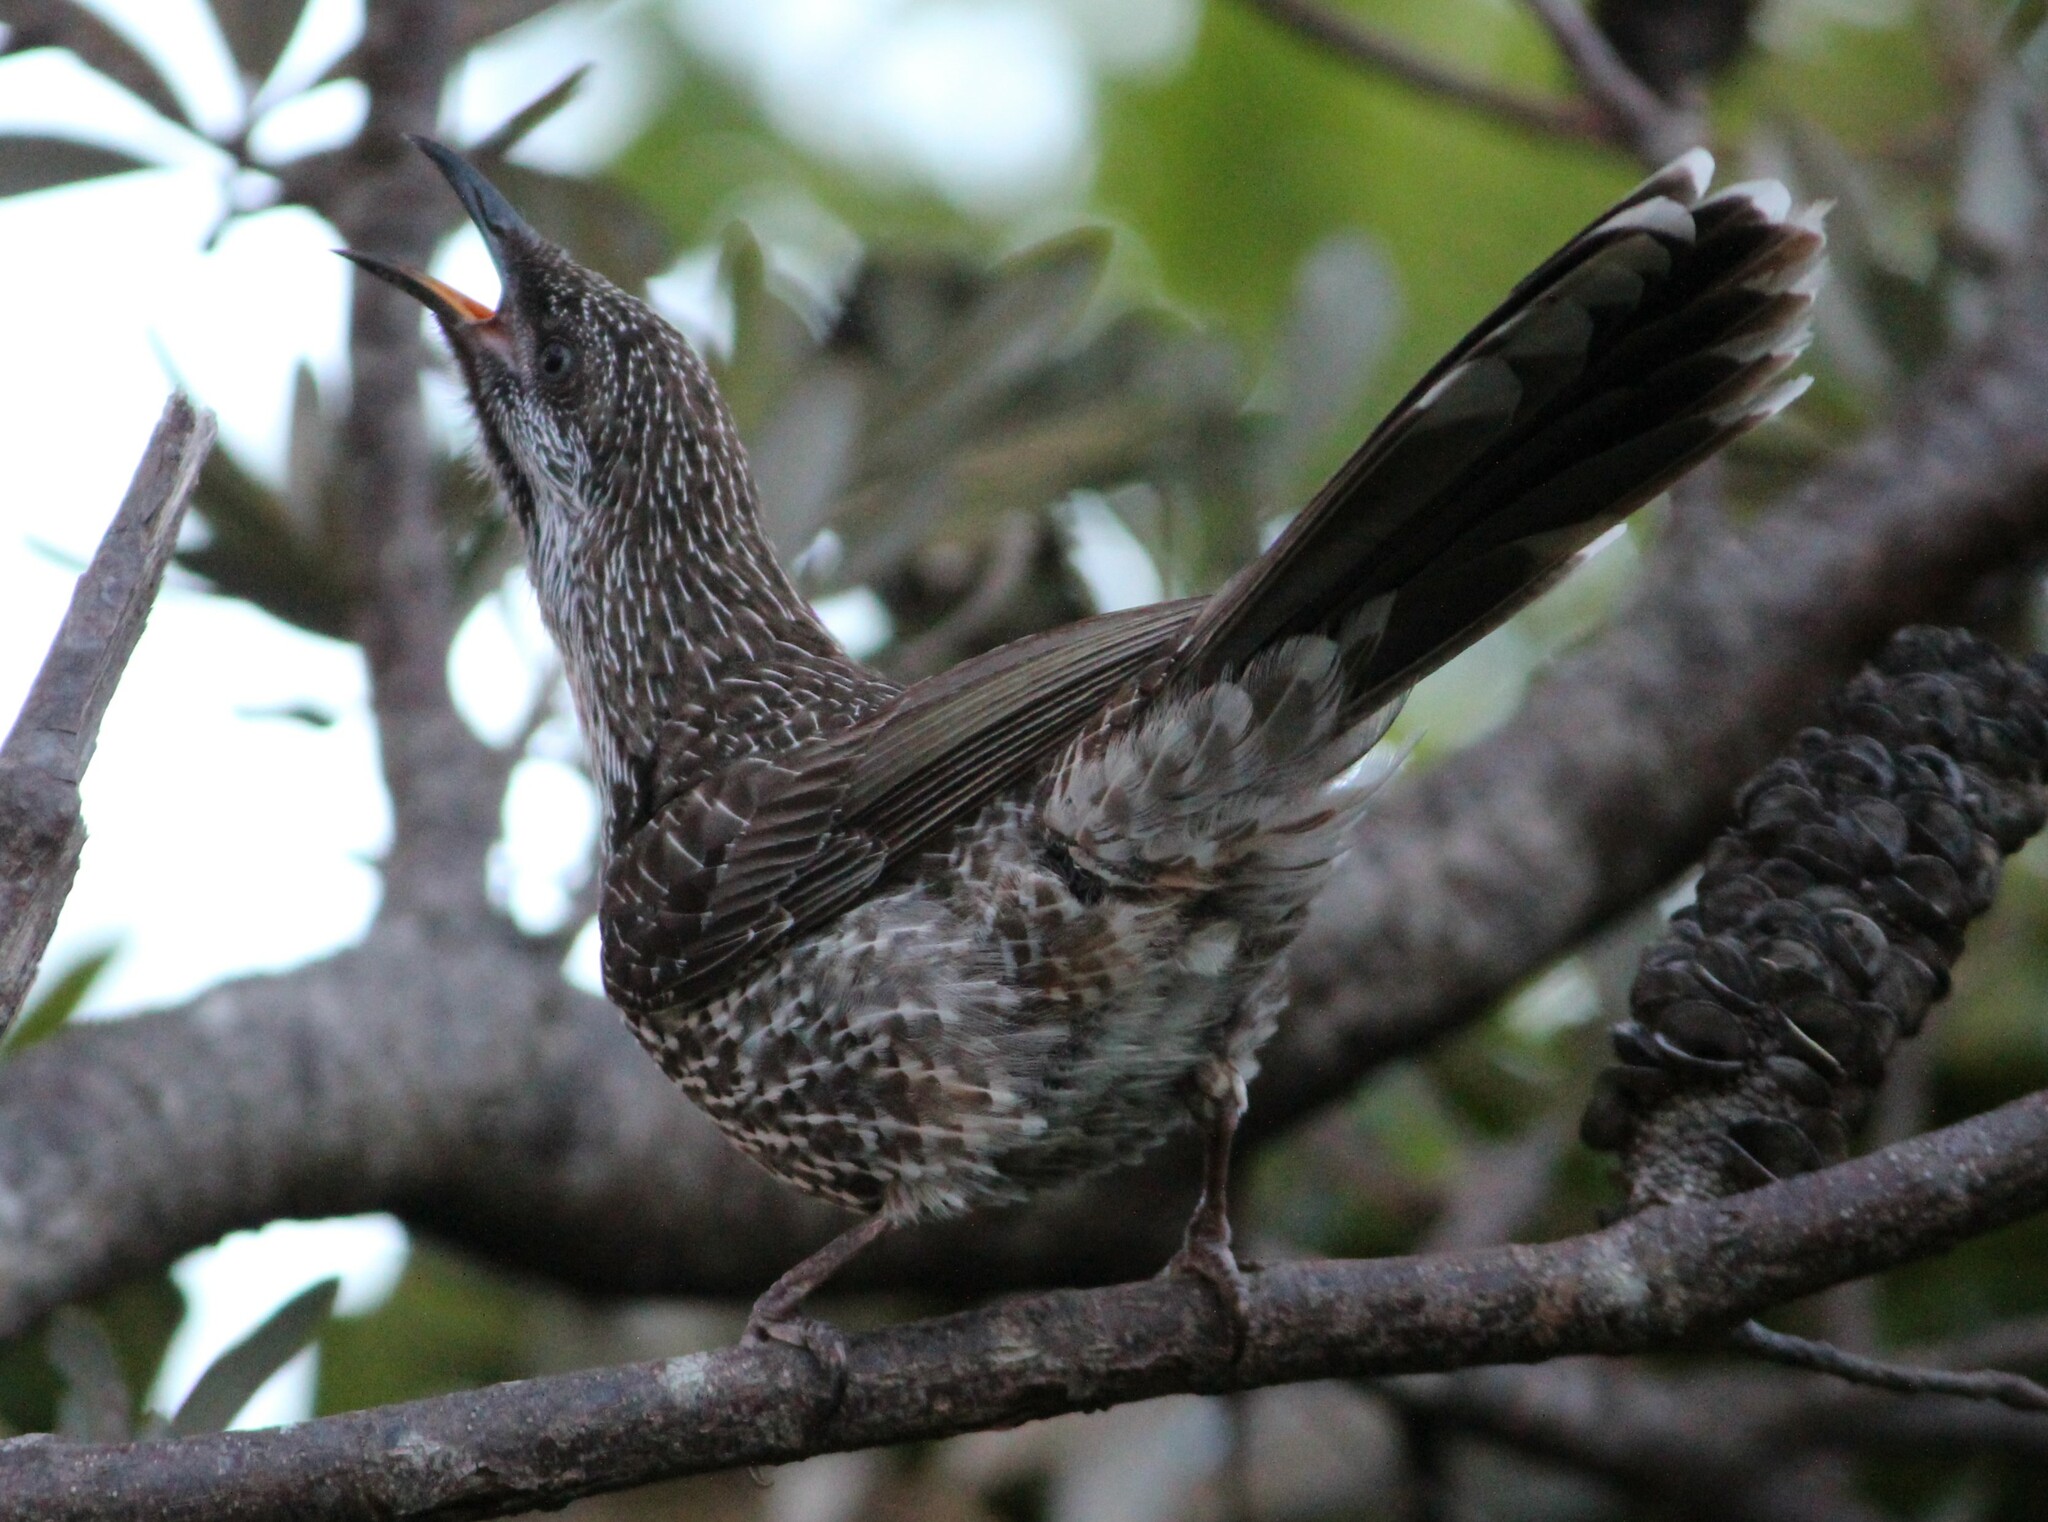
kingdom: Animalia
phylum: Chordata
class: Aves
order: Passeriformes
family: Meliphagidae
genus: Anthochaera
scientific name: Anthochaera chrysoptera
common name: Little wattlebird
